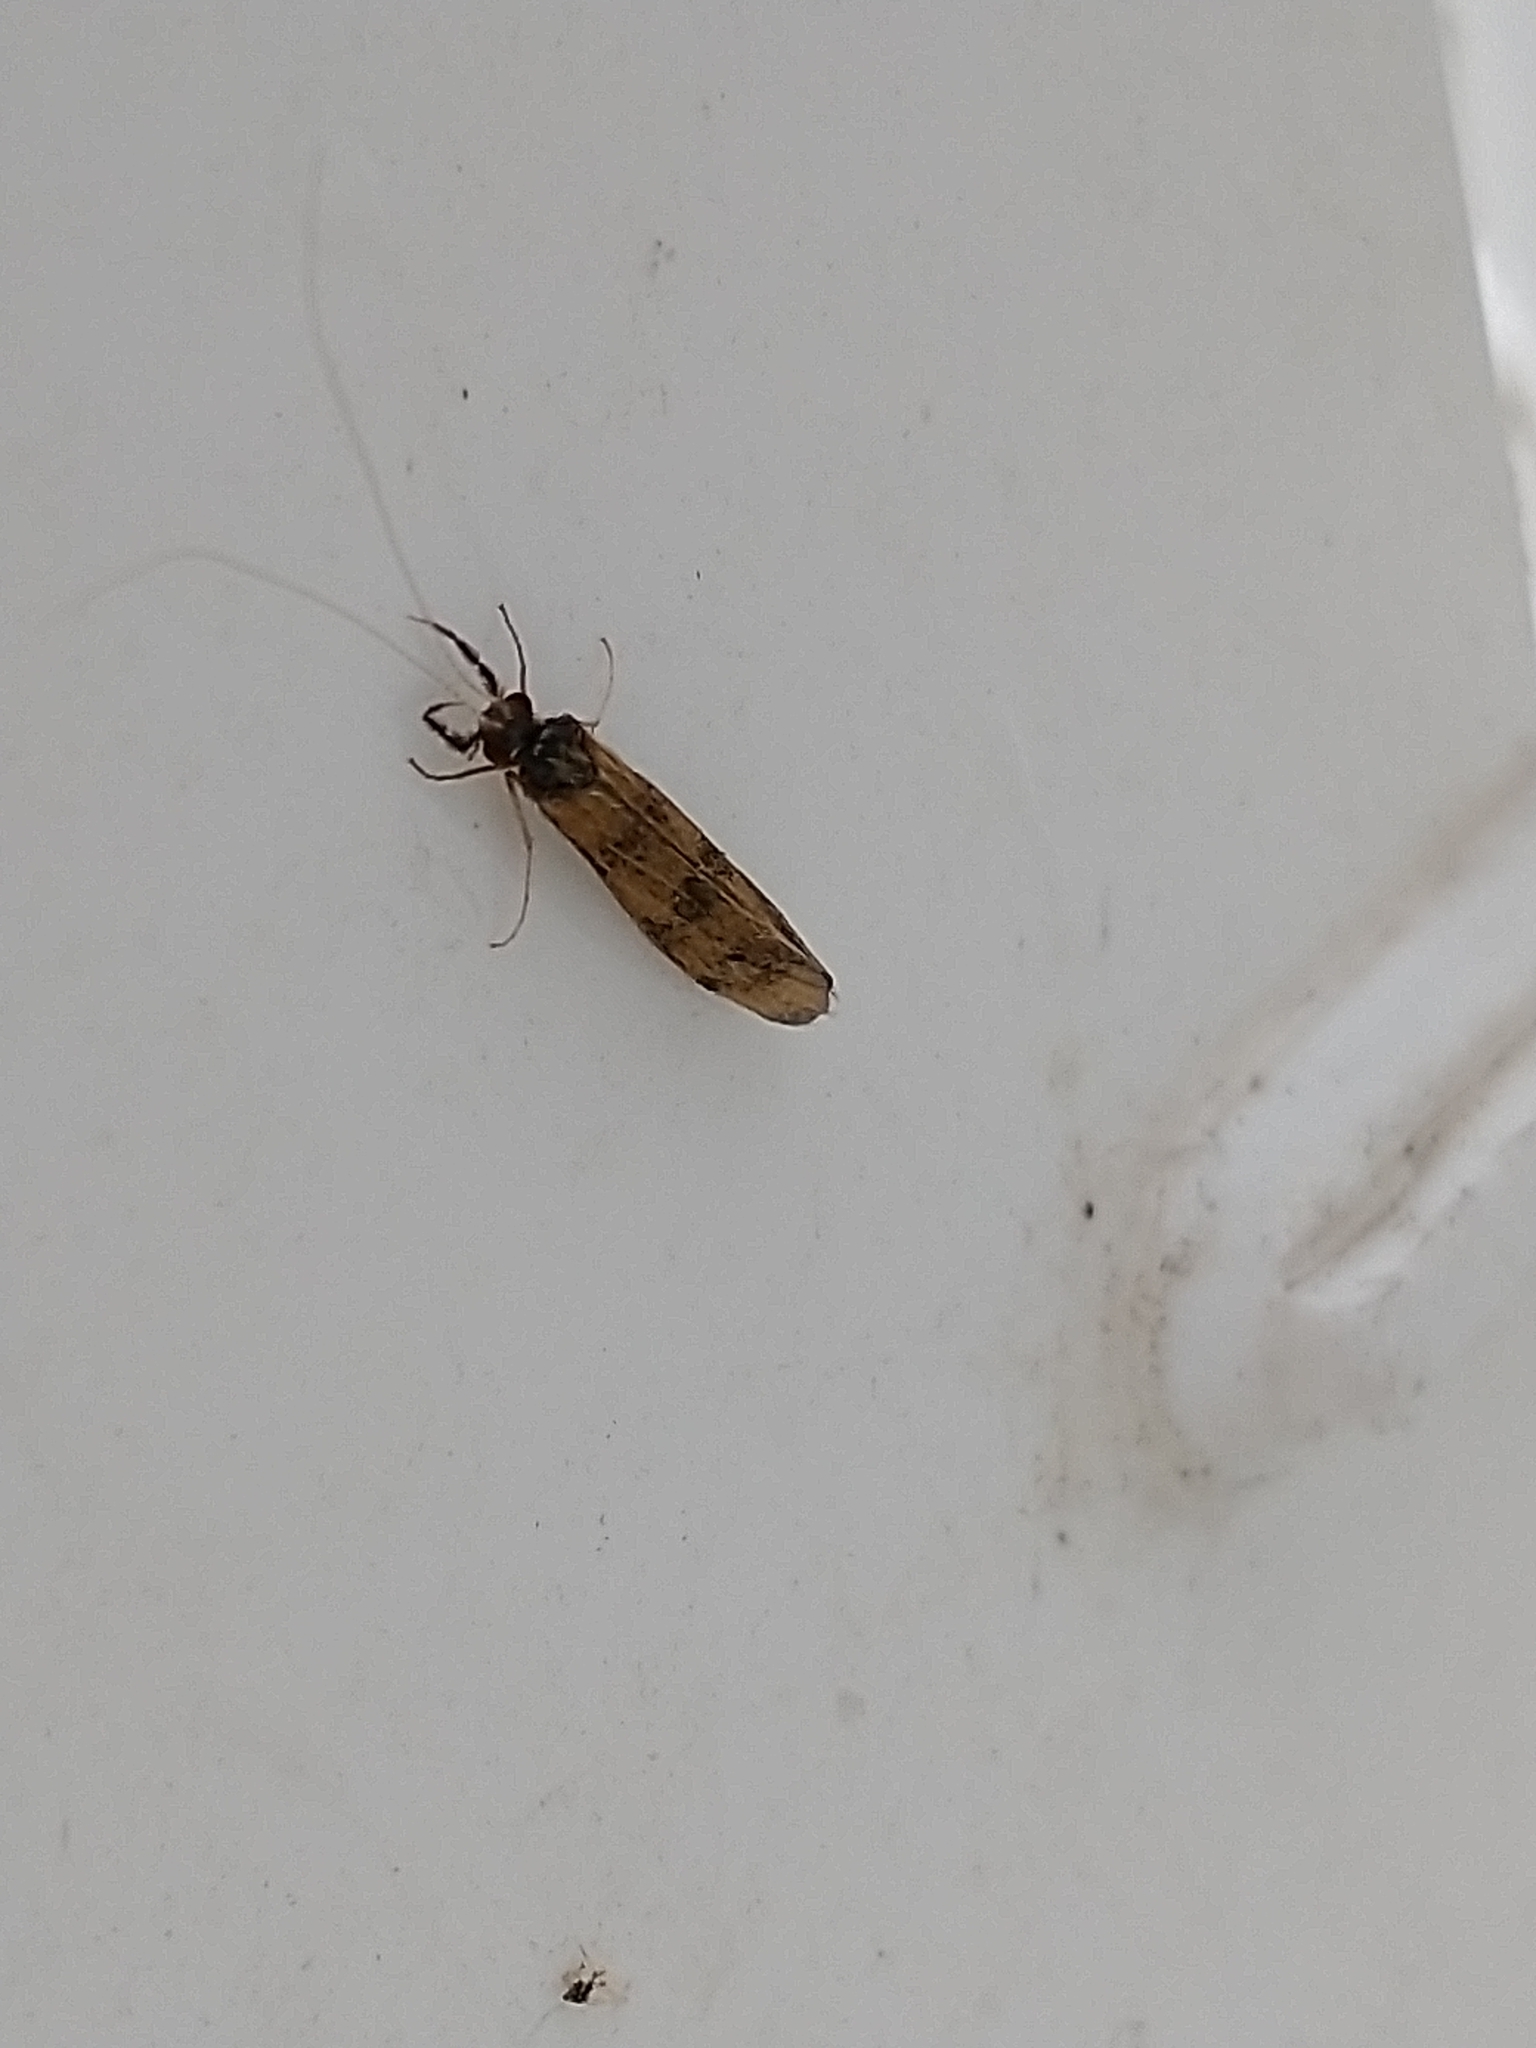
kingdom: Animalia
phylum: Arthropoda
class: Insecta
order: Trichoptera
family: Leptoceridae
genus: Mystacides
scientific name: Mystacides longicornis
